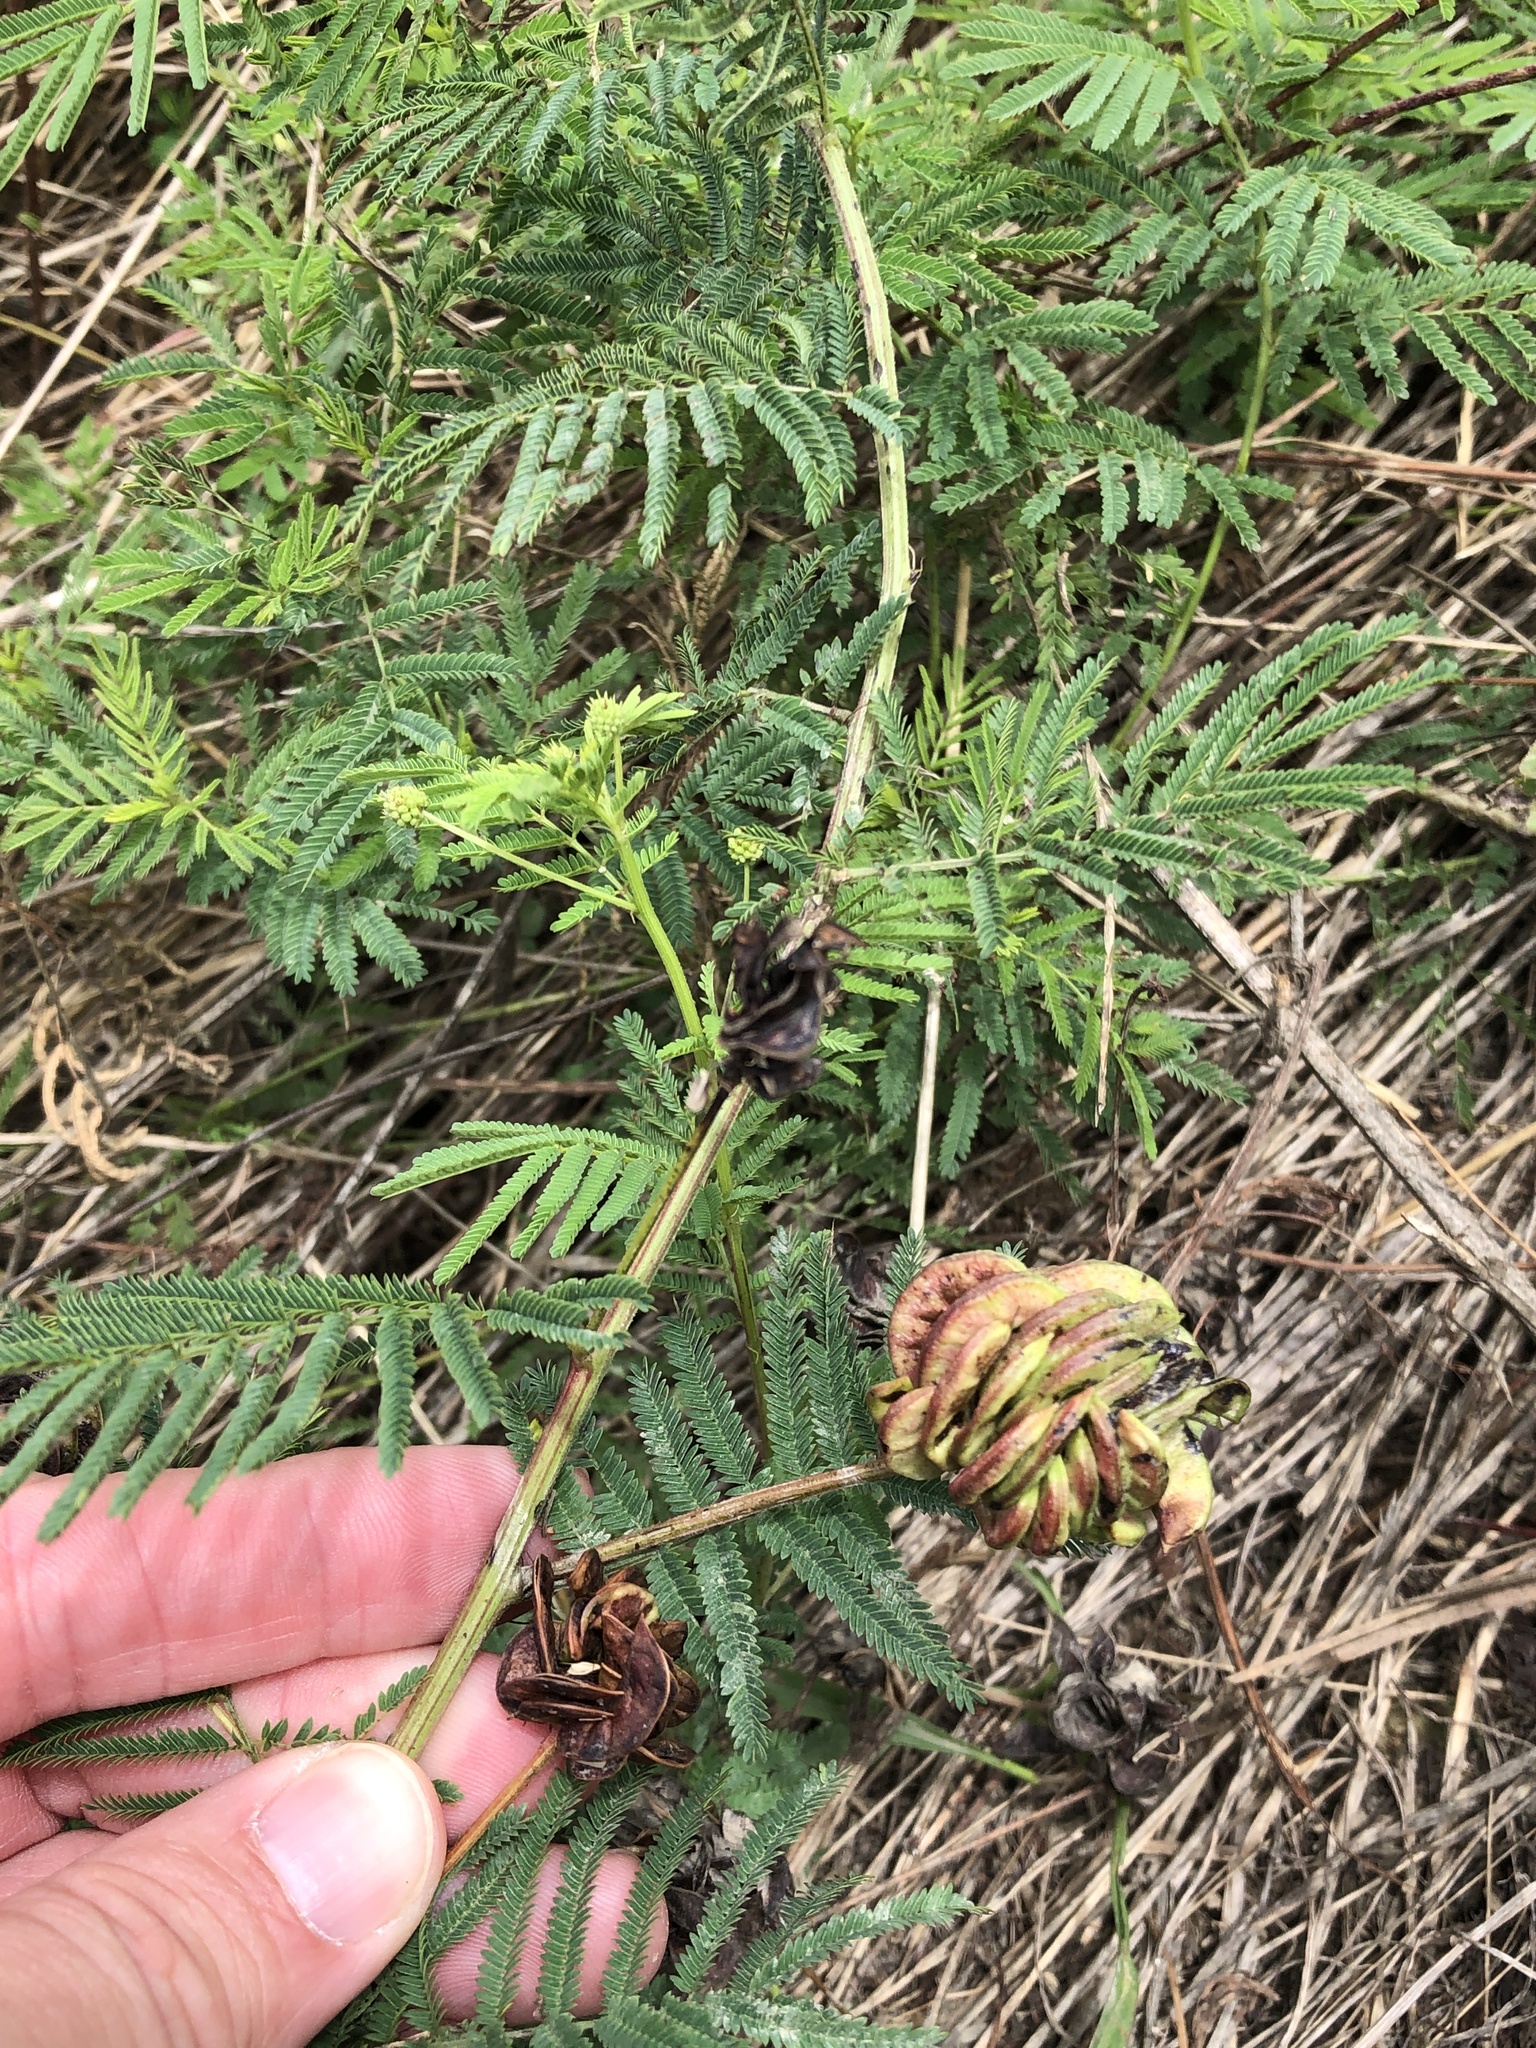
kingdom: Plantae
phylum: Tracheophyta
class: Magnoliopsida
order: Fabales
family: Fabaceae
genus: Desmanthus
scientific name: Desmanthus illinoensis
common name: Illinois bundle-flower
